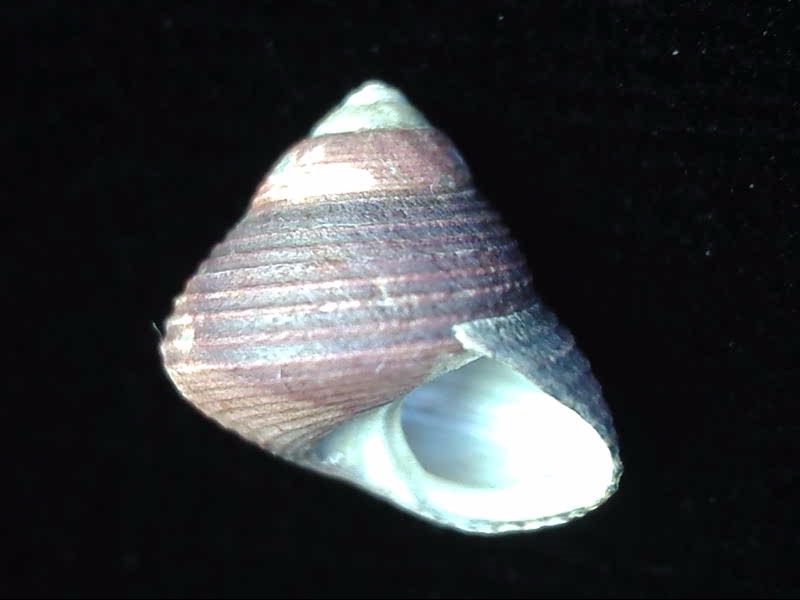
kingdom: Animalia
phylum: Mollusca
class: Gastropoda
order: Trochida
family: Trochidae
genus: Micrelenchus
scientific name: Micrelenchus huttonii
